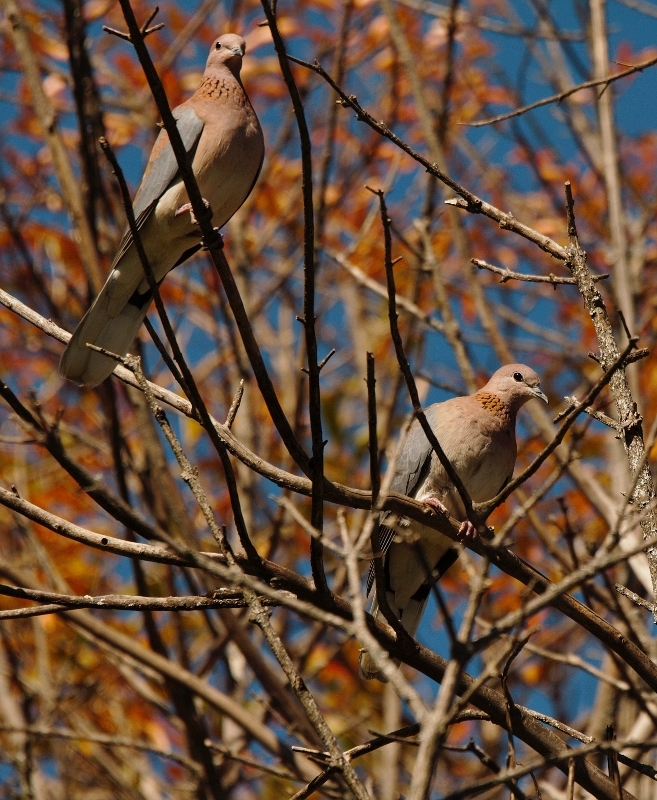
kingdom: Animalia
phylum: Chordata
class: Aves
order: Columbiformes
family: Columbidae
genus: Spilopelia
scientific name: Spilopelia senegalensis
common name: Laughing dove
